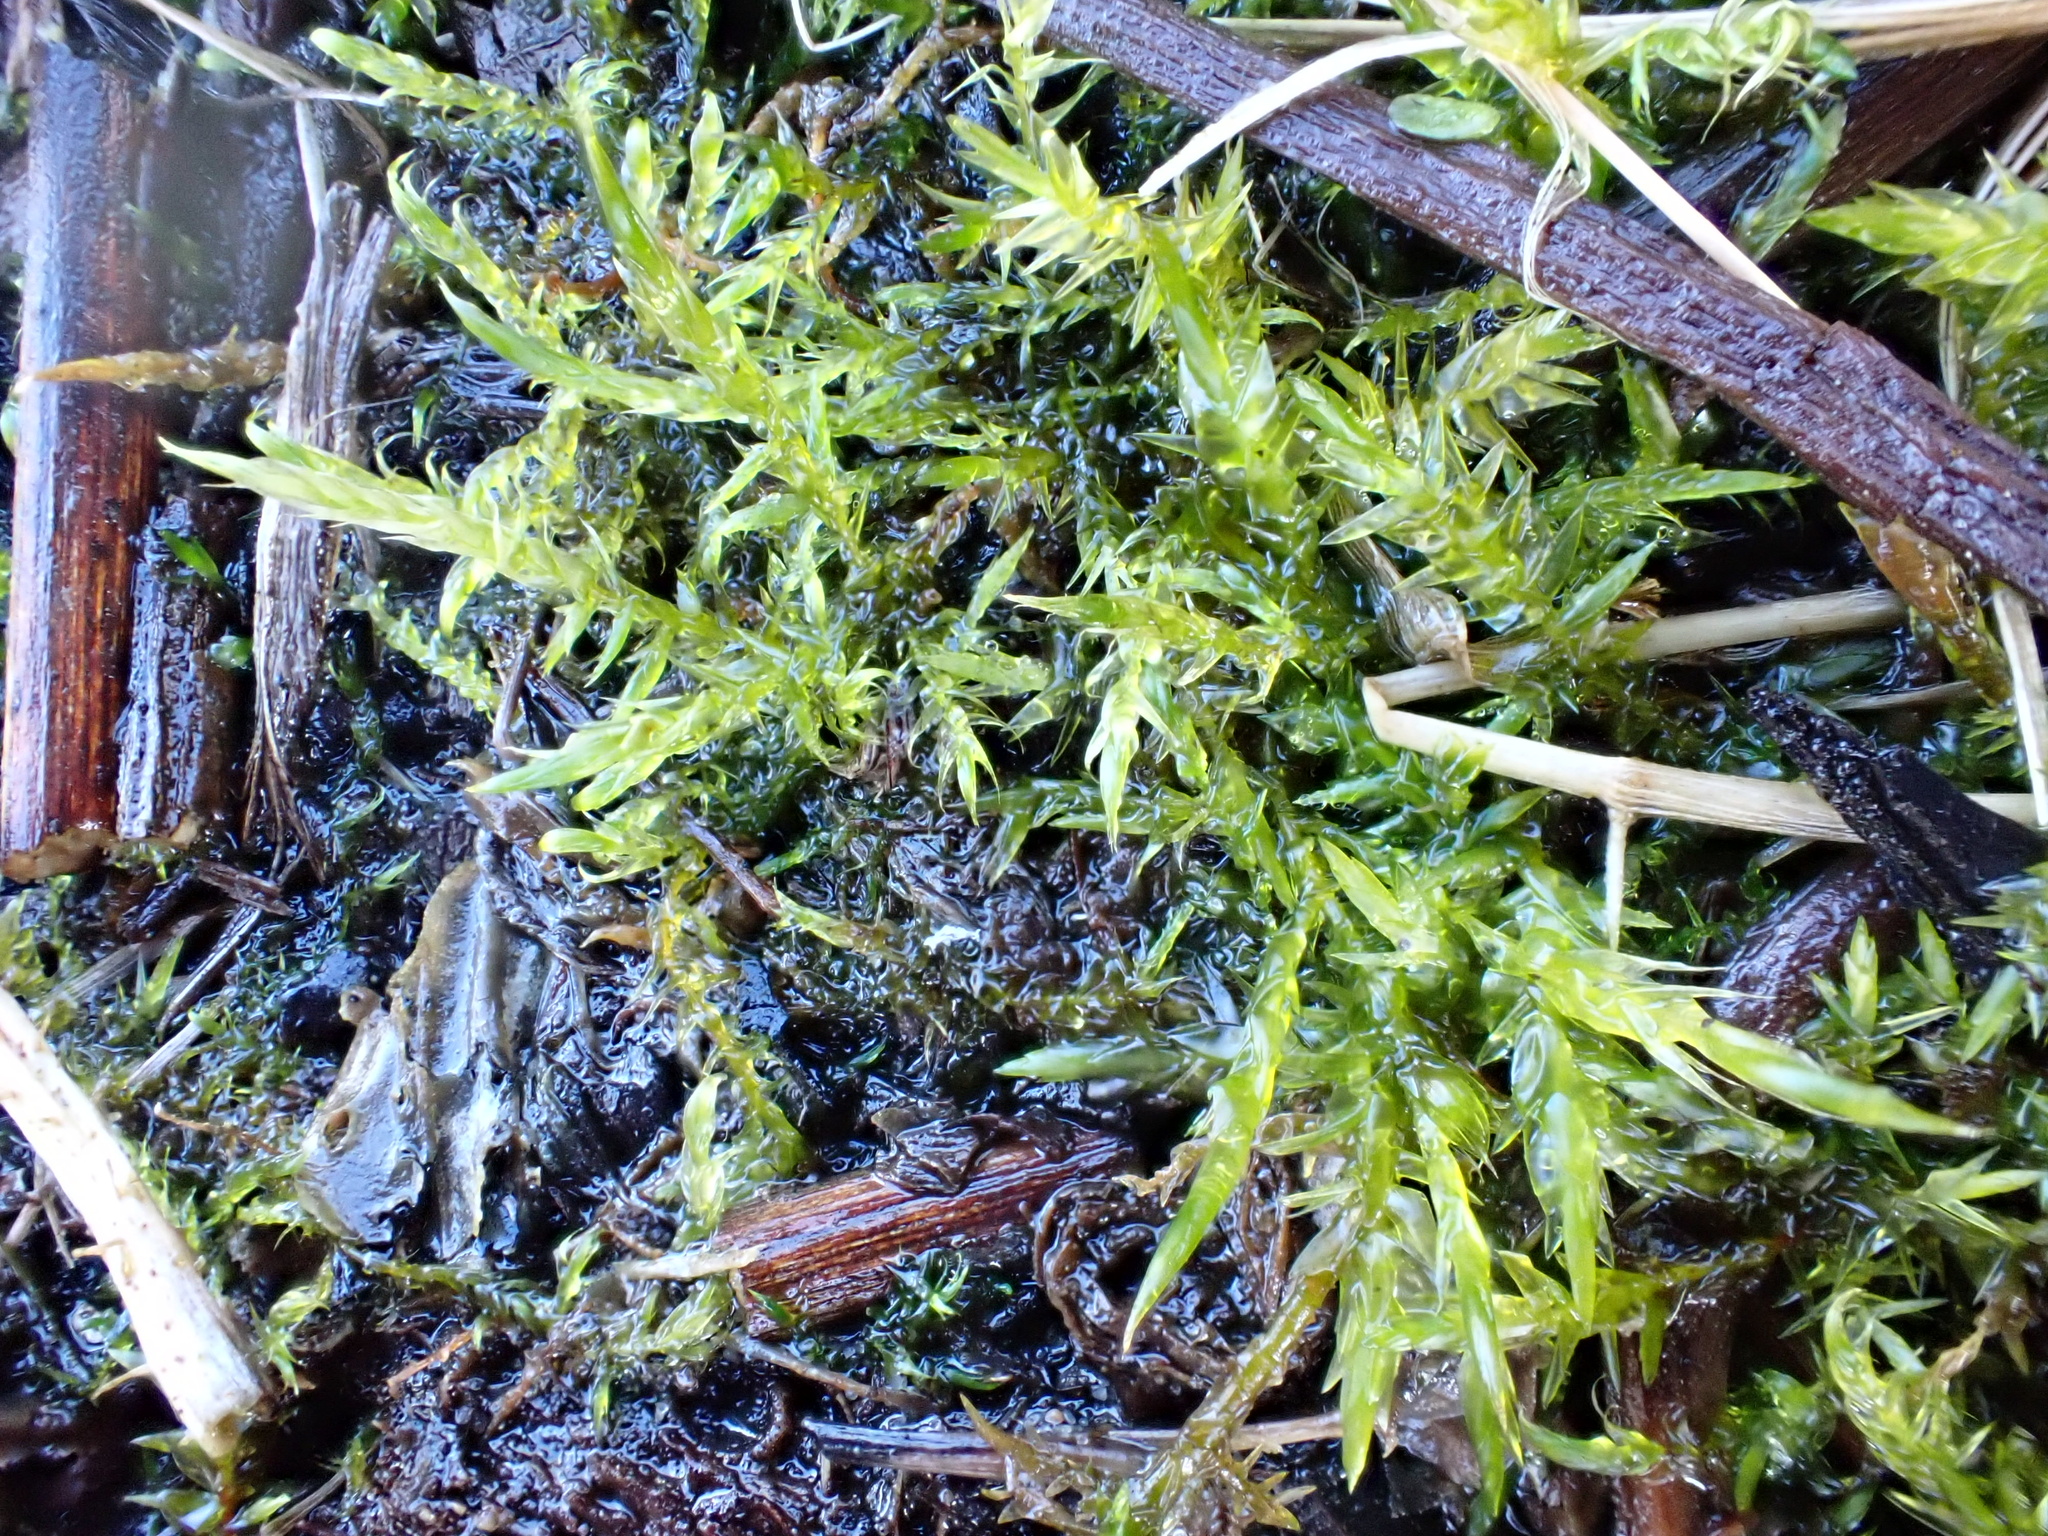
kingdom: Plantae
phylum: Bryophyta
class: Bryopsida
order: Hypnales
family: Calliergonaceae
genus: Sarmentypnum
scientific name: Sarmentypnum exannulatum
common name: Ringless spoon moss
